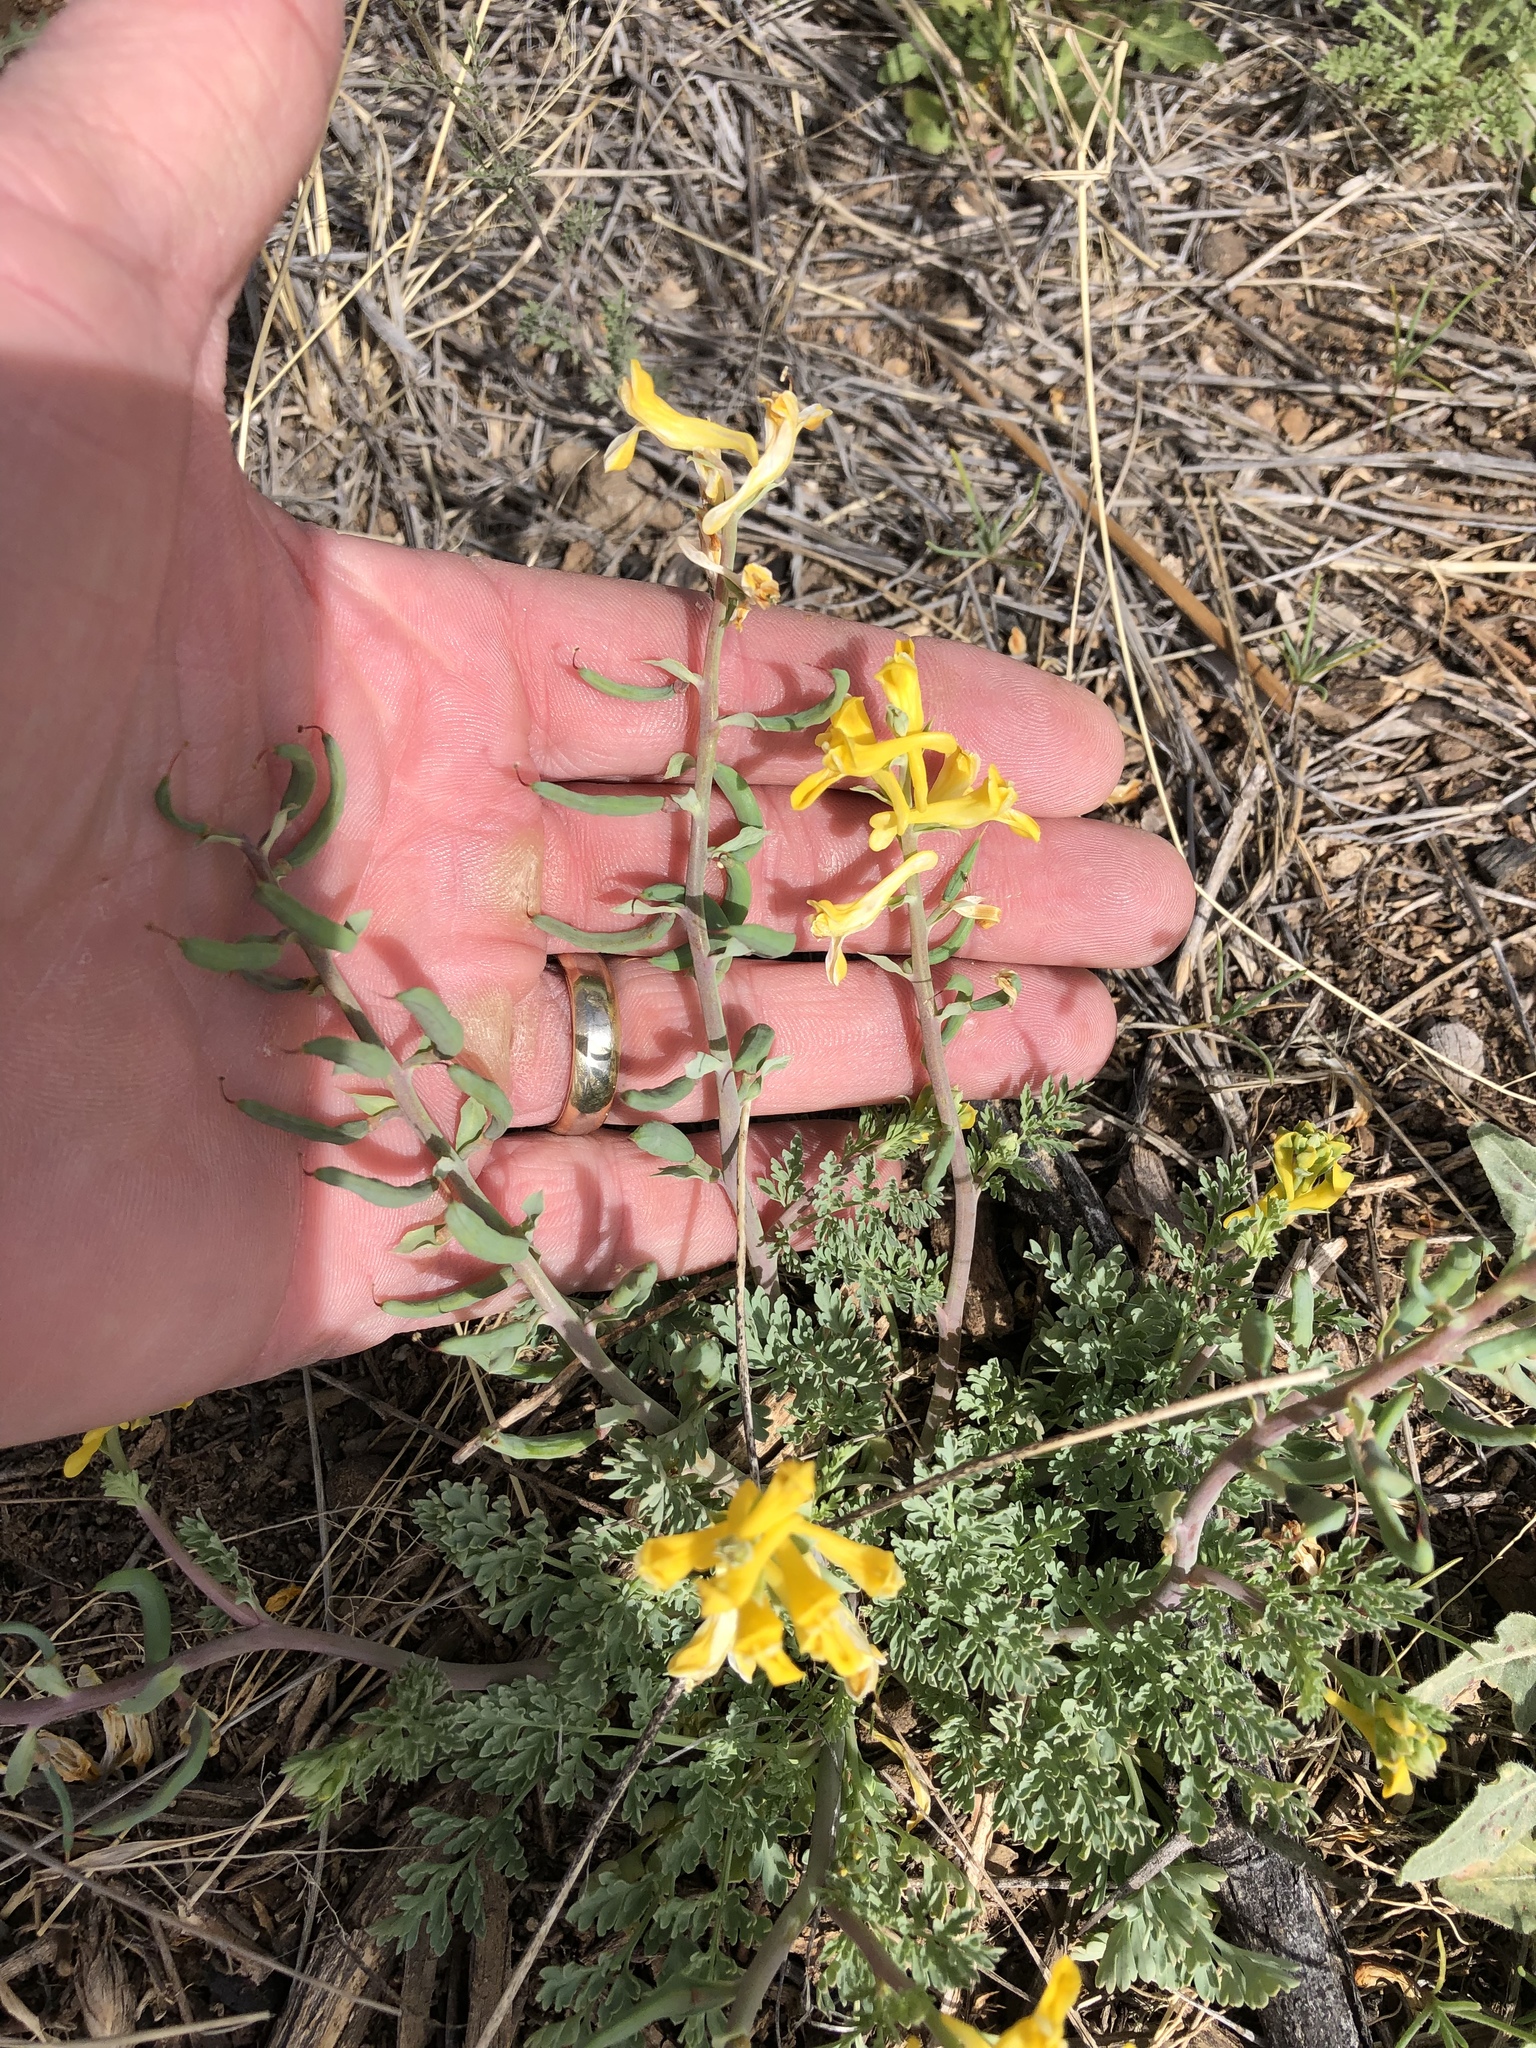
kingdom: Plantae
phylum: Tracheophyta
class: Magnoliopsida
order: Ranunculales
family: Papaveraceae
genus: Corydalis
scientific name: Corydalis aurea
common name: Golden corydalis
